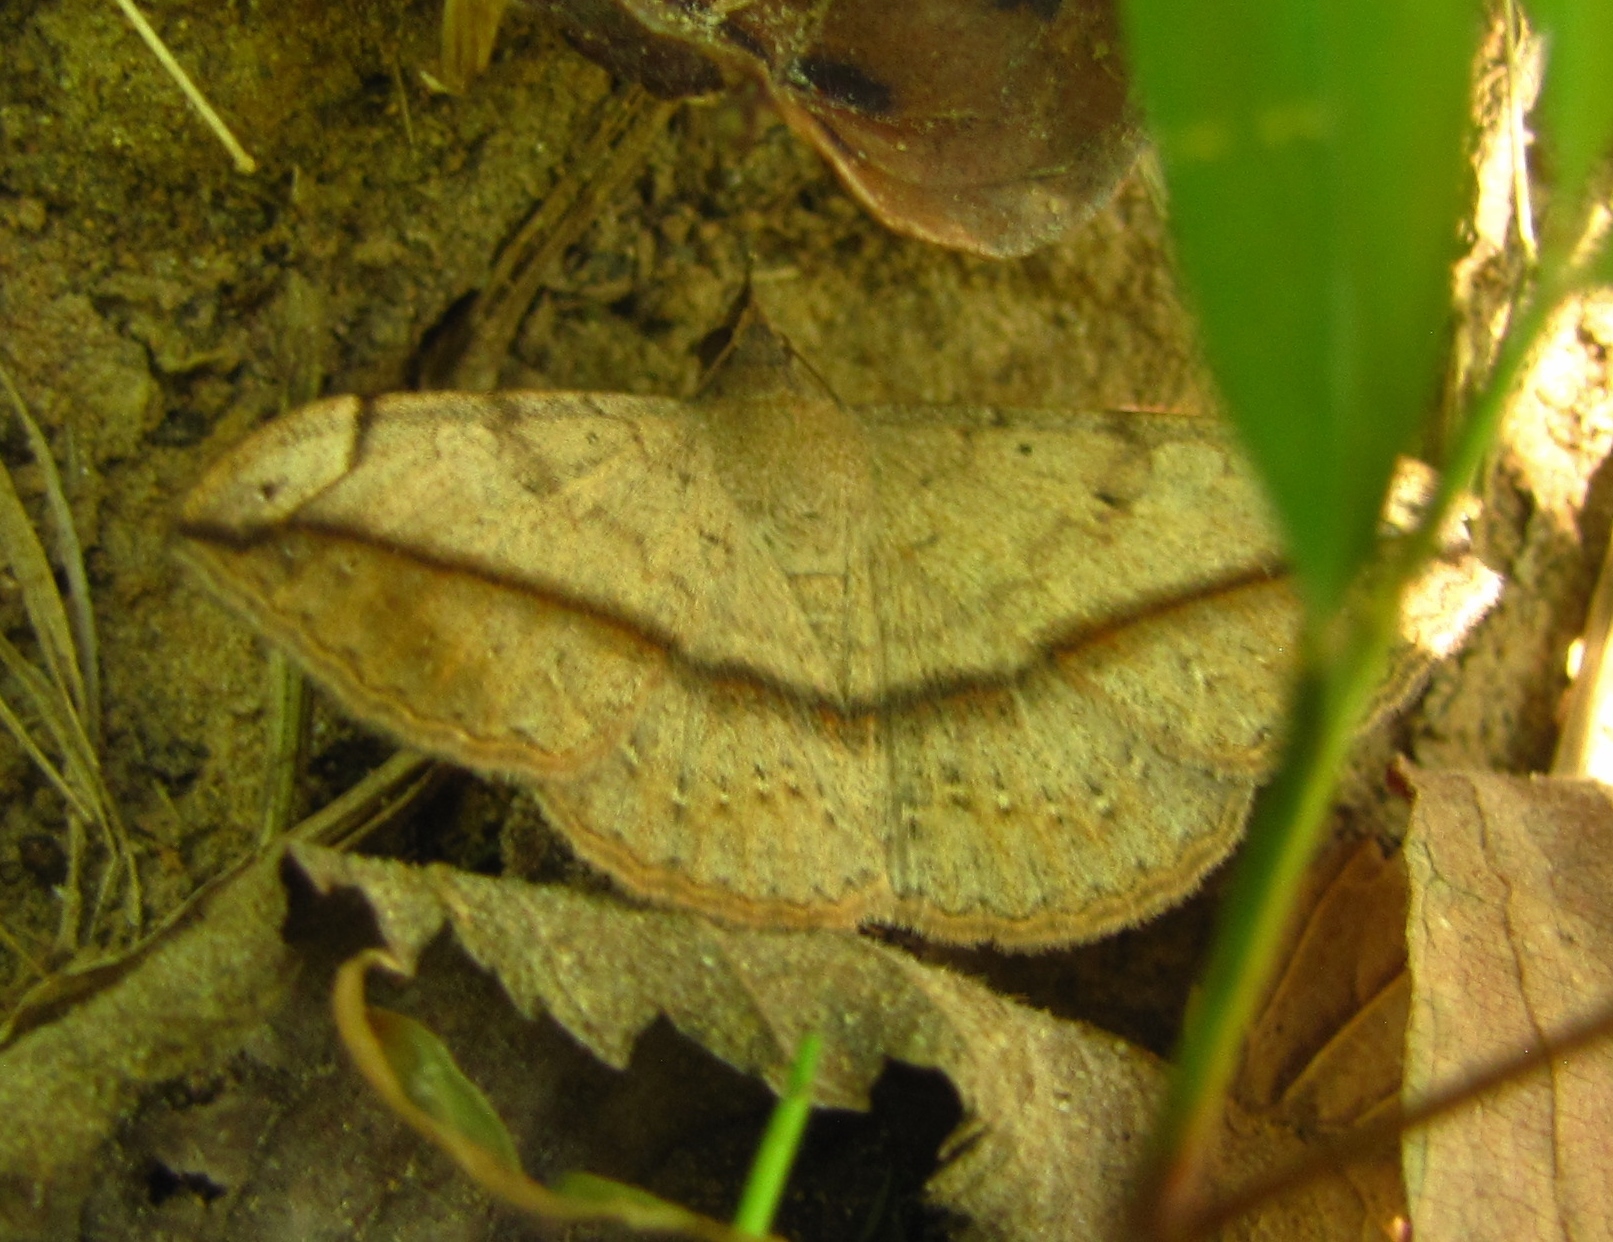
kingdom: Animalia
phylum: Arthropoda
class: Insecta
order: Lepidoptera
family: Erebidae
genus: Anticarsia
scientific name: Anticarsia gemmatalis
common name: Cutworm moth
